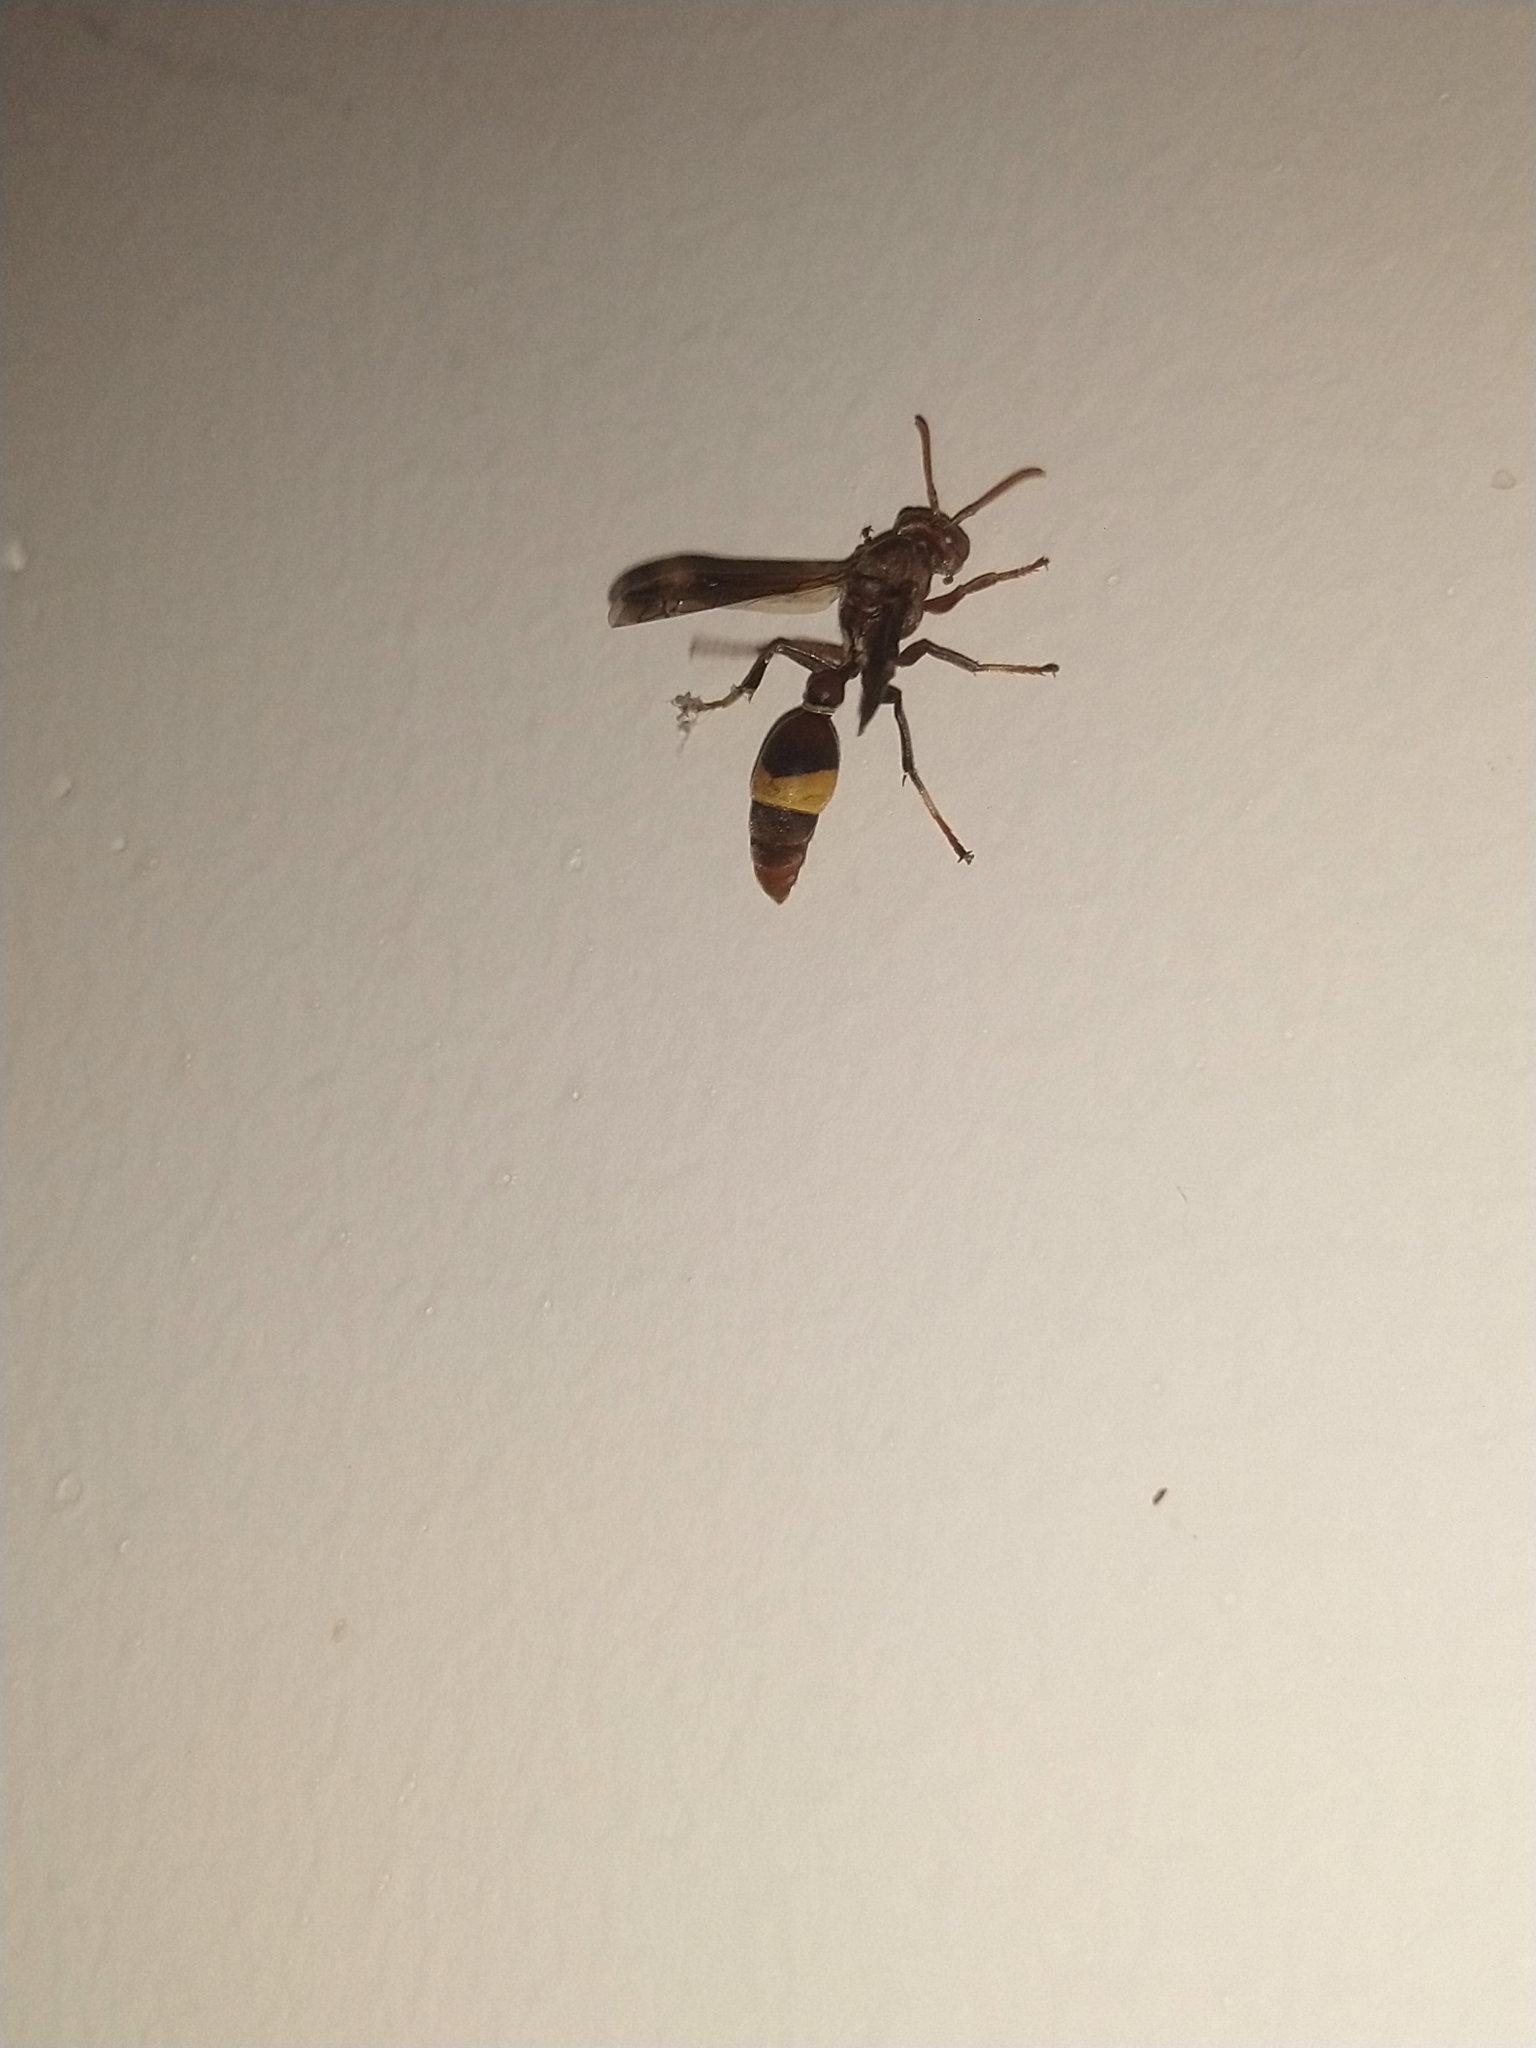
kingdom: Animalia
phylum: Arthropoda
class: Insecta
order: Hymenoptera
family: Vespidae
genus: Ropalidia
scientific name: Ropalidia
